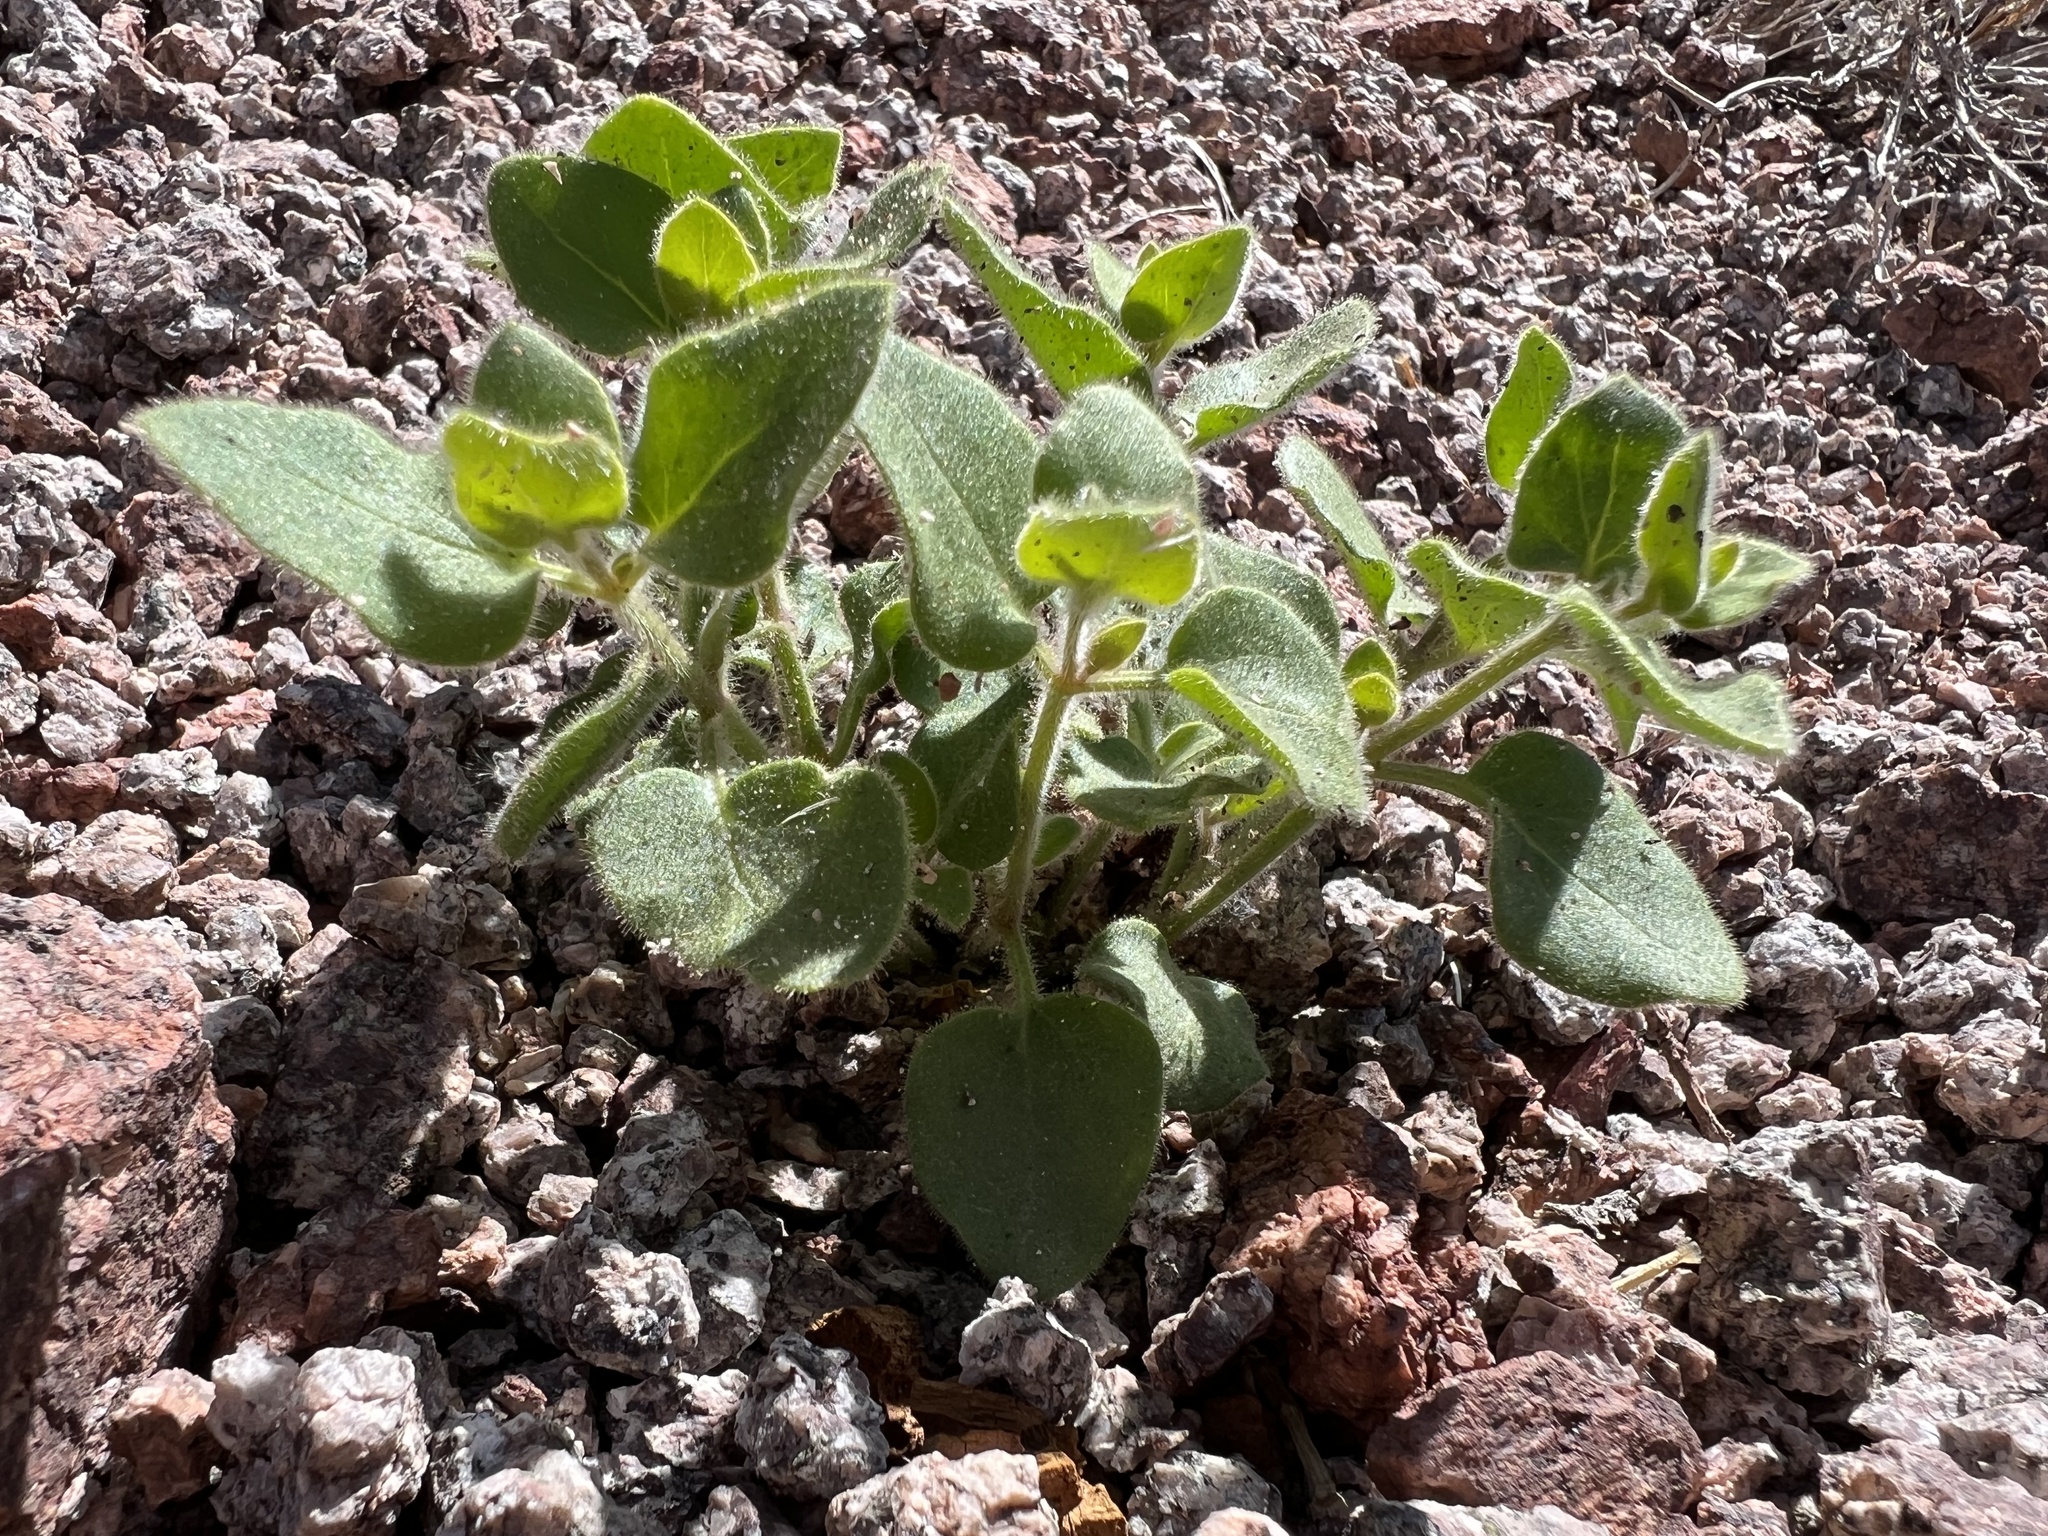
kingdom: Plantae
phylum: Tracheophyta
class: Magnoliopsida
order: Caryophyllales
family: Nyctaginaceae
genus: Mirabilis
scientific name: Mirabilis laevis
